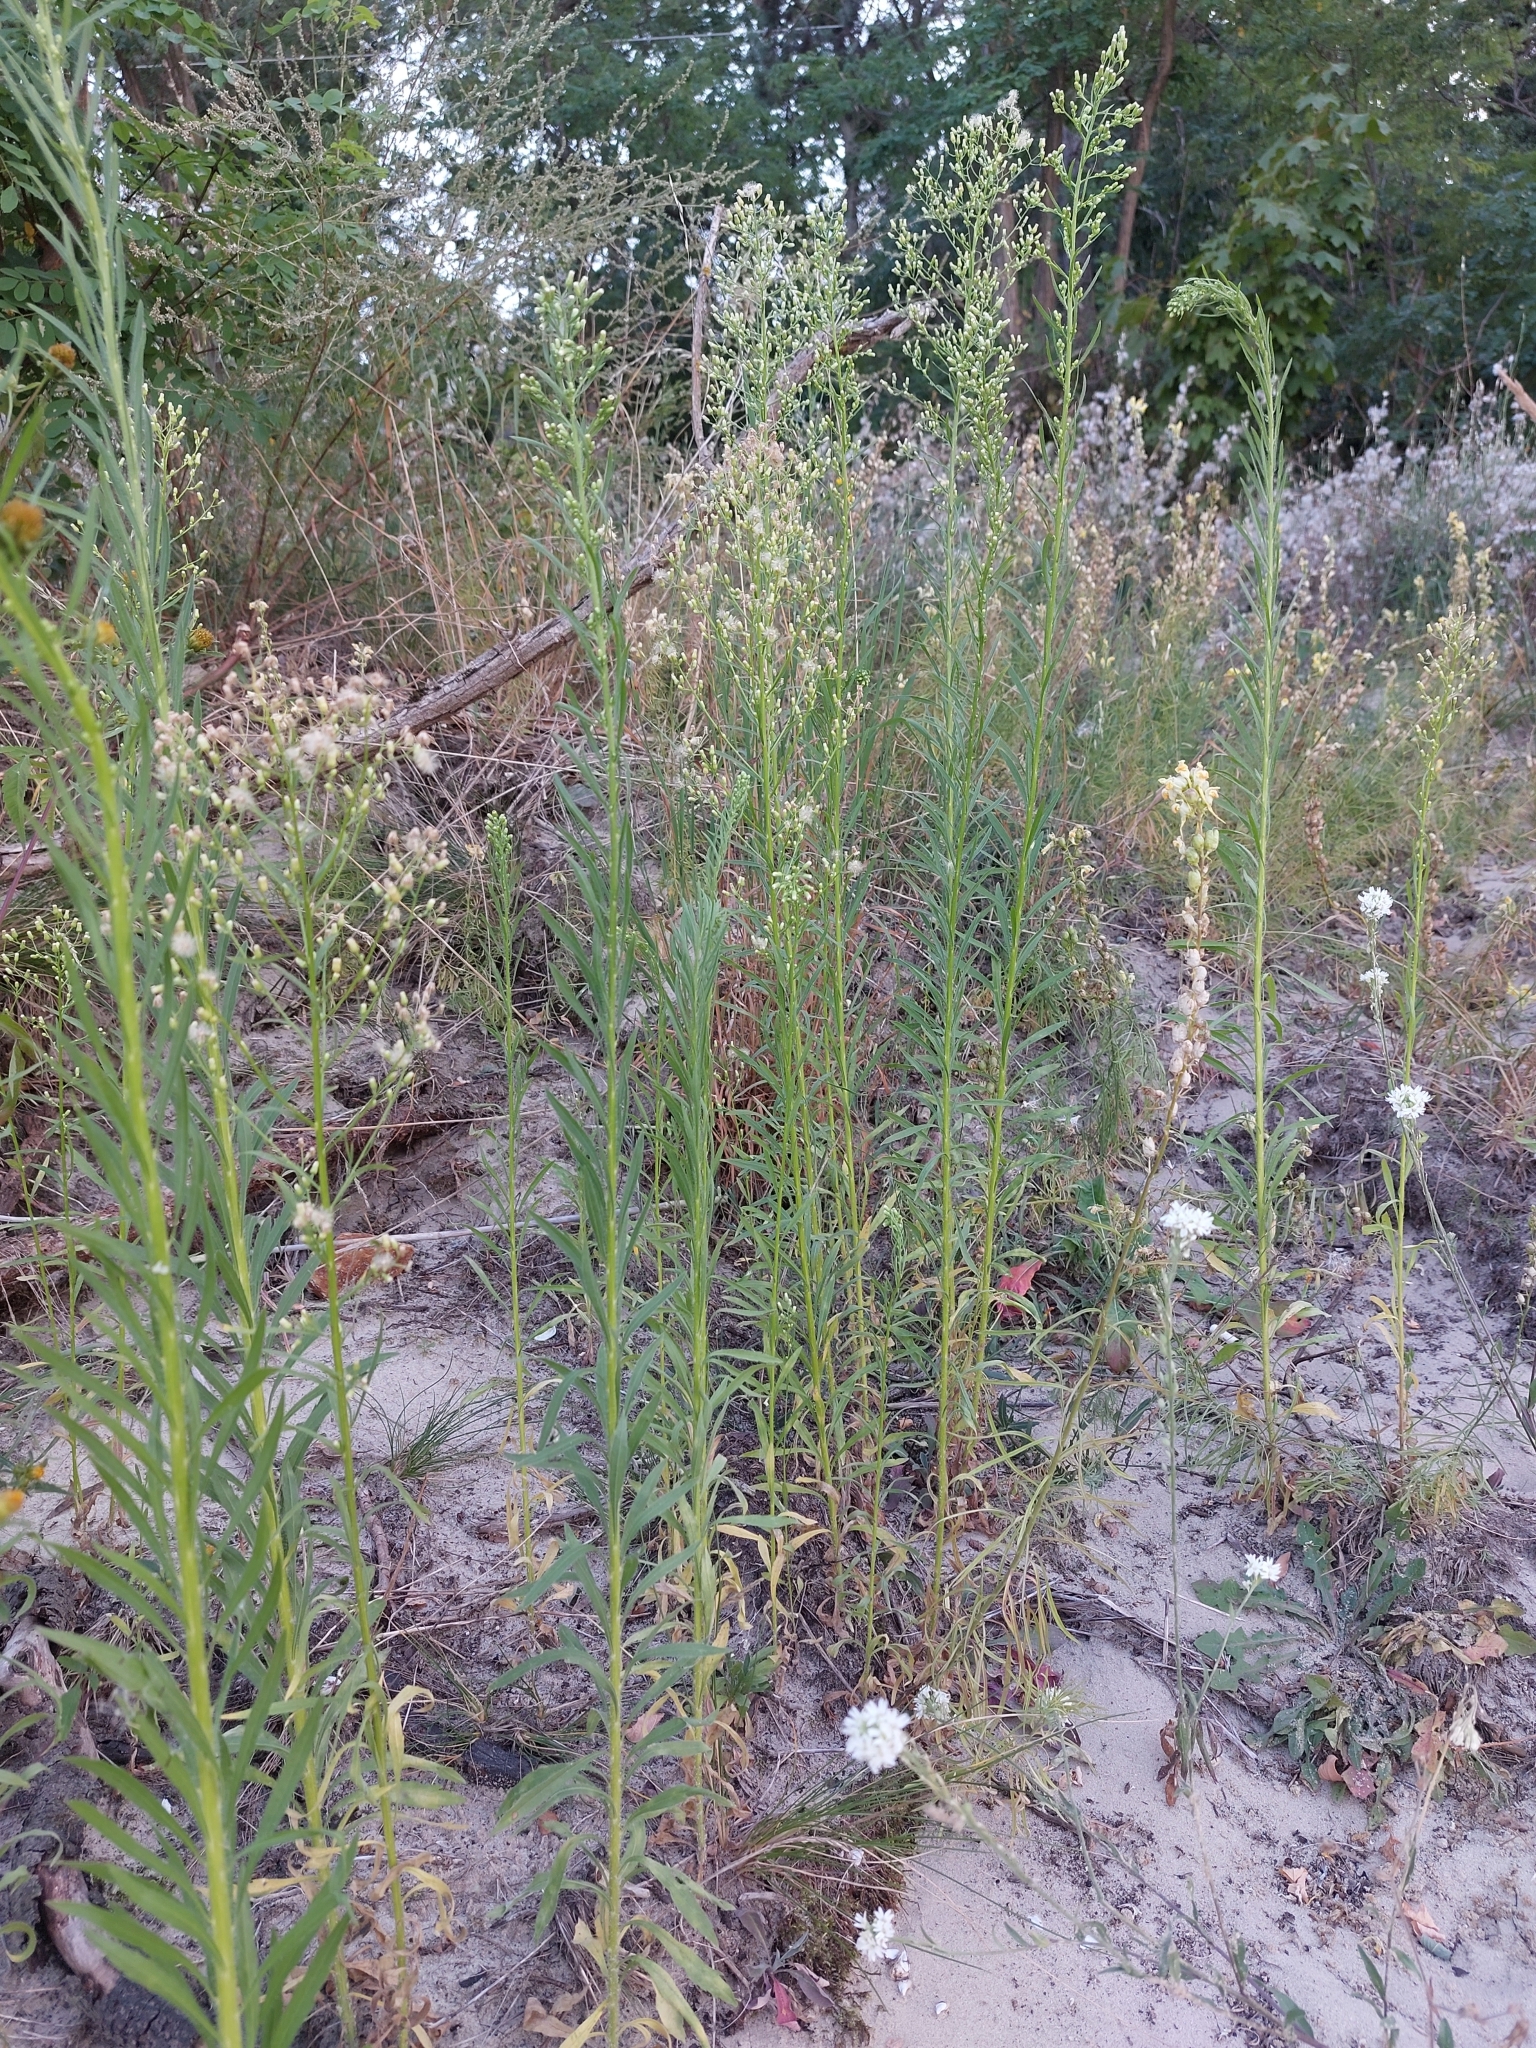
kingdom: Plantae
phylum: Tracheophyta
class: Magnoliopsida
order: Asterales
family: Asteraceae
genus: Erigeron
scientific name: Erigeron canadensis
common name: Canadian fleabane
